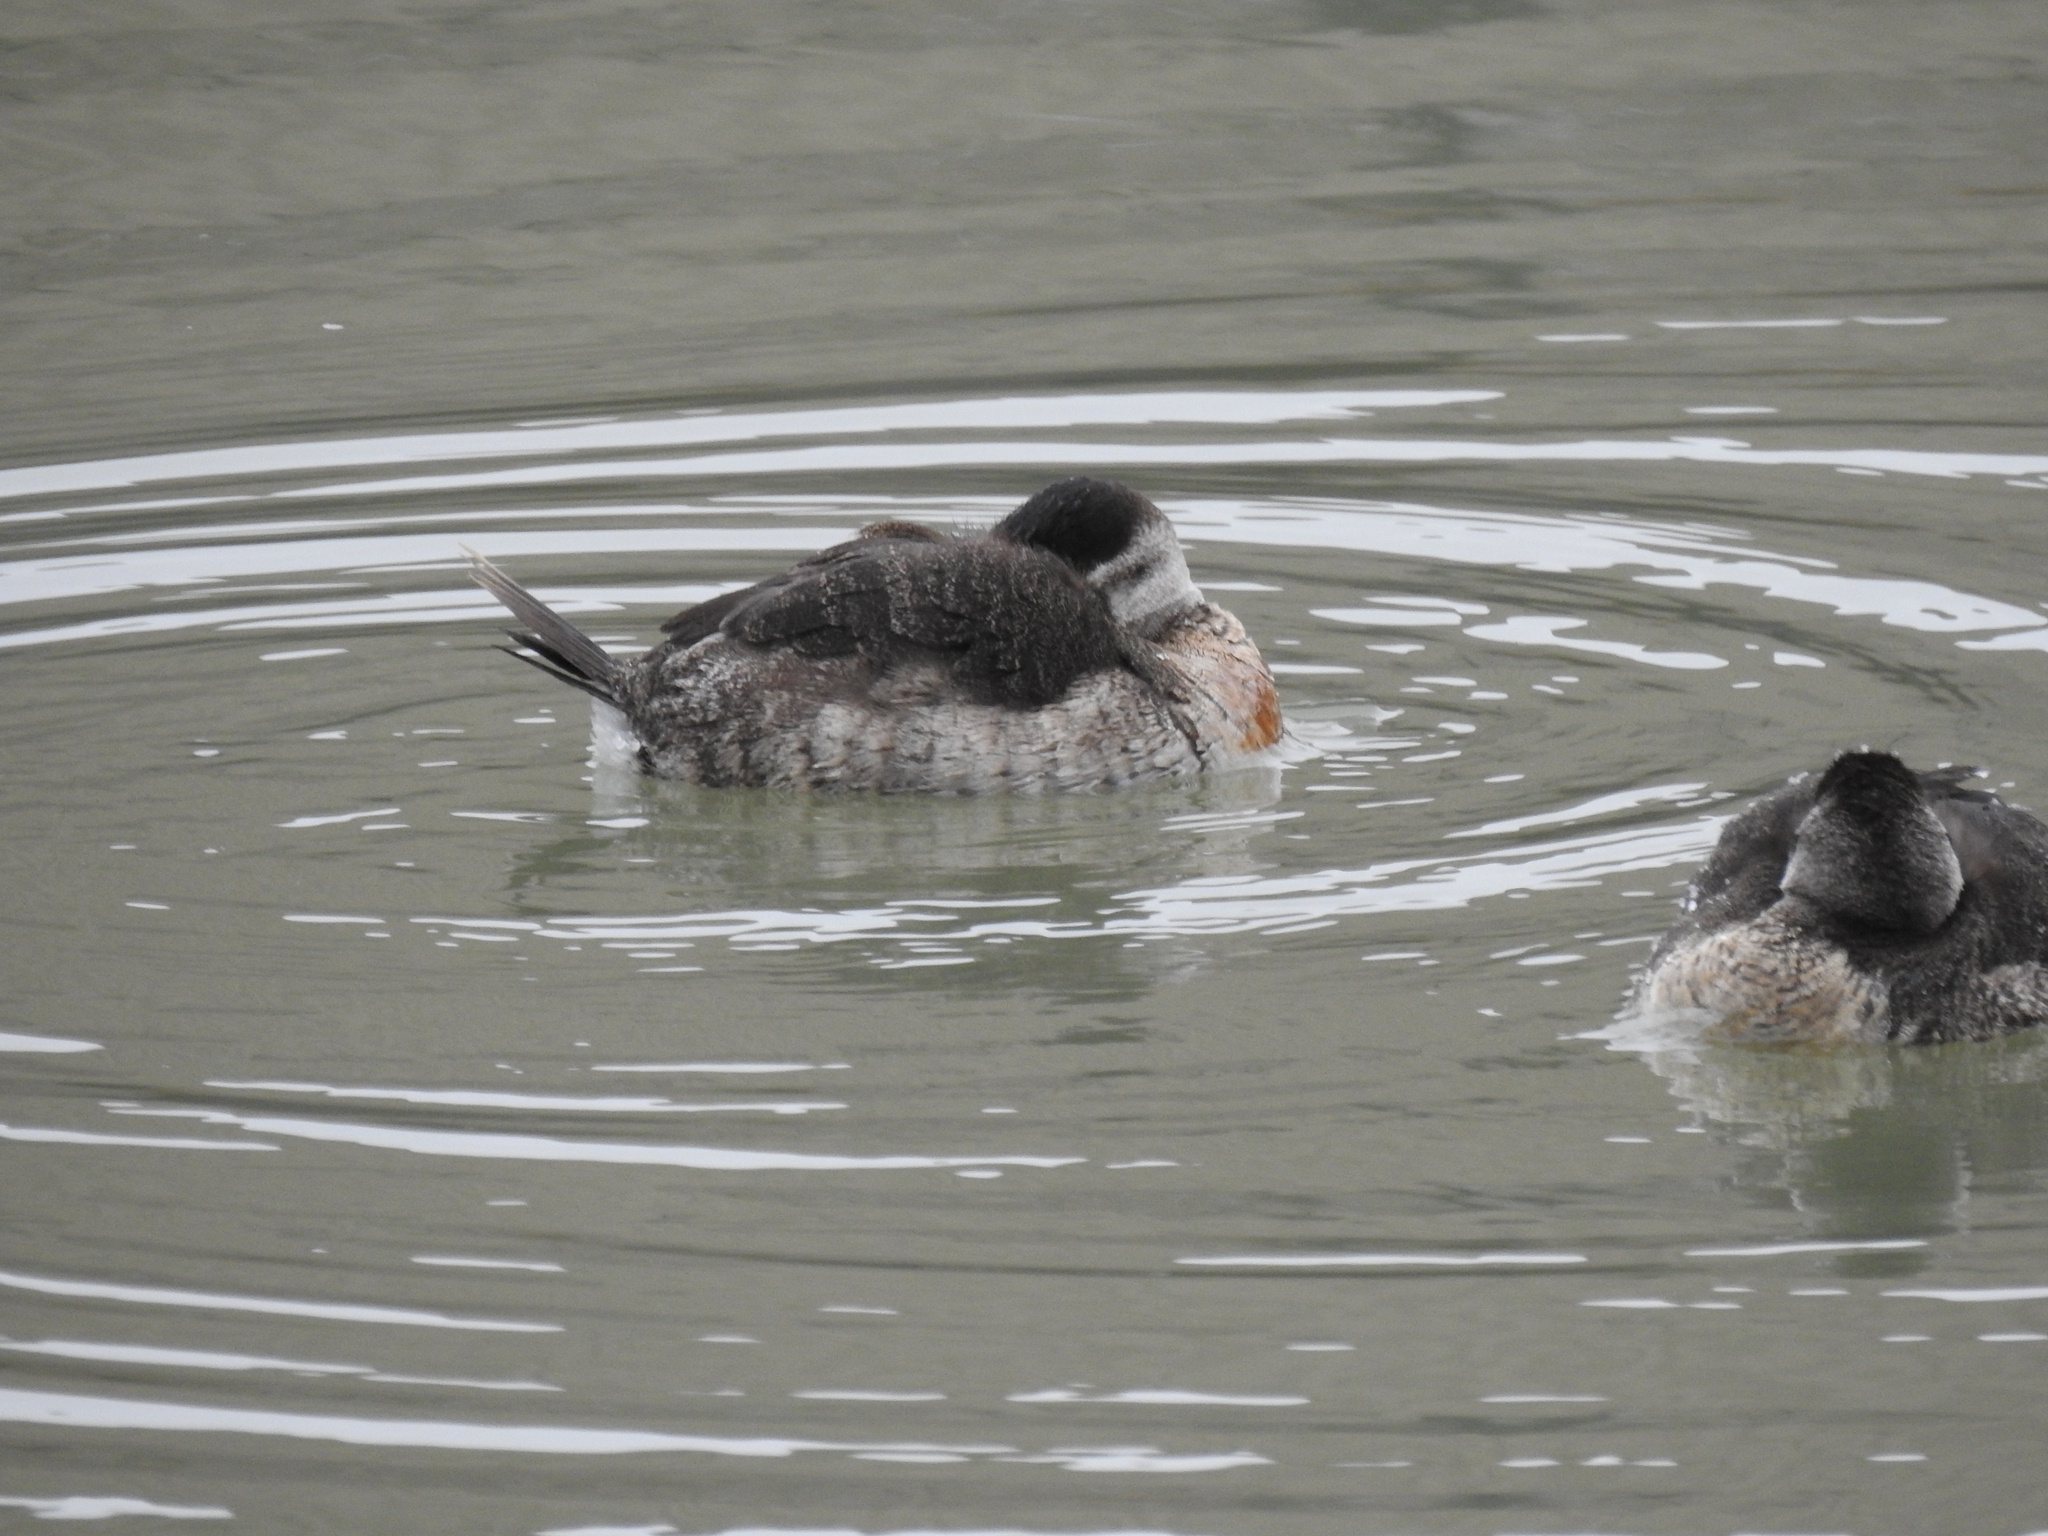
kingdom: Animalia
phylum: Chordata
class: Aves
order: Anseriformes
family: Anatidae
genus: Oxyura
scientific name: Oxyura jamaicensis
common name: Ruddy duck
